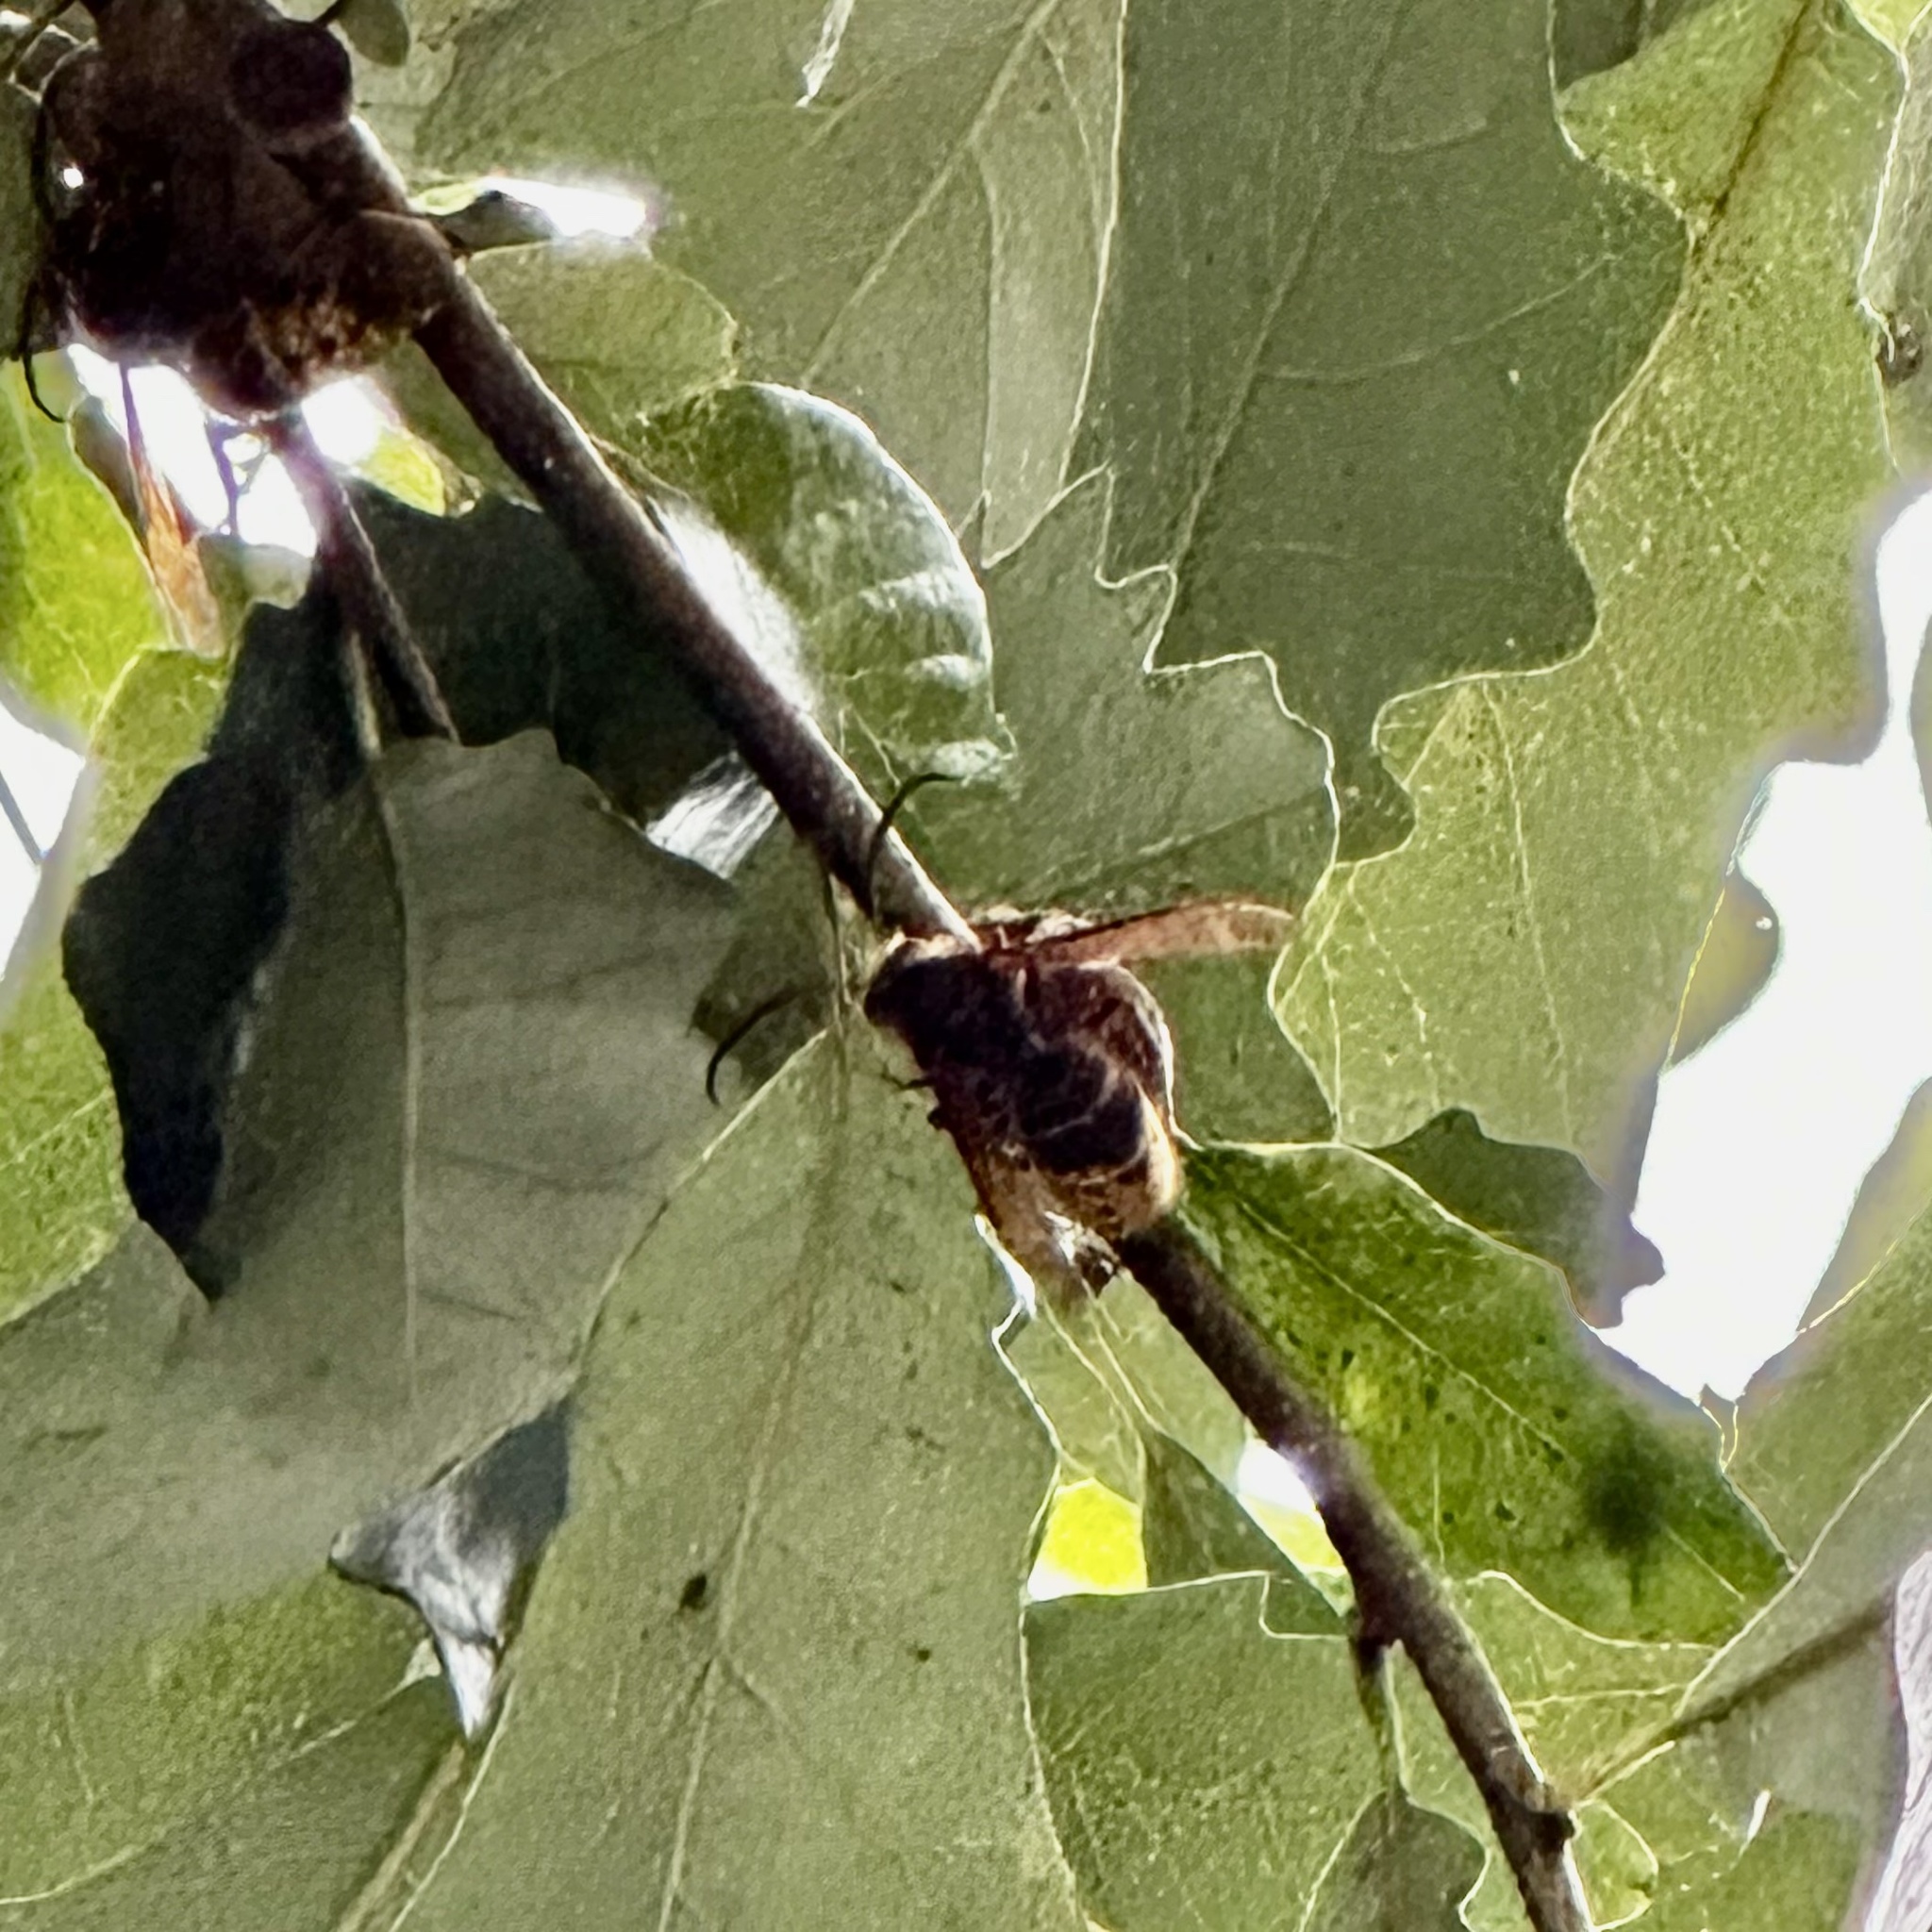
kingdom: Animalia
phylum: Arthropoda
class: Insecta
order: Hymenoptera
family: Vespidae
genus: Vespa
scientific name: Vespa crabro
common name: Hornet
